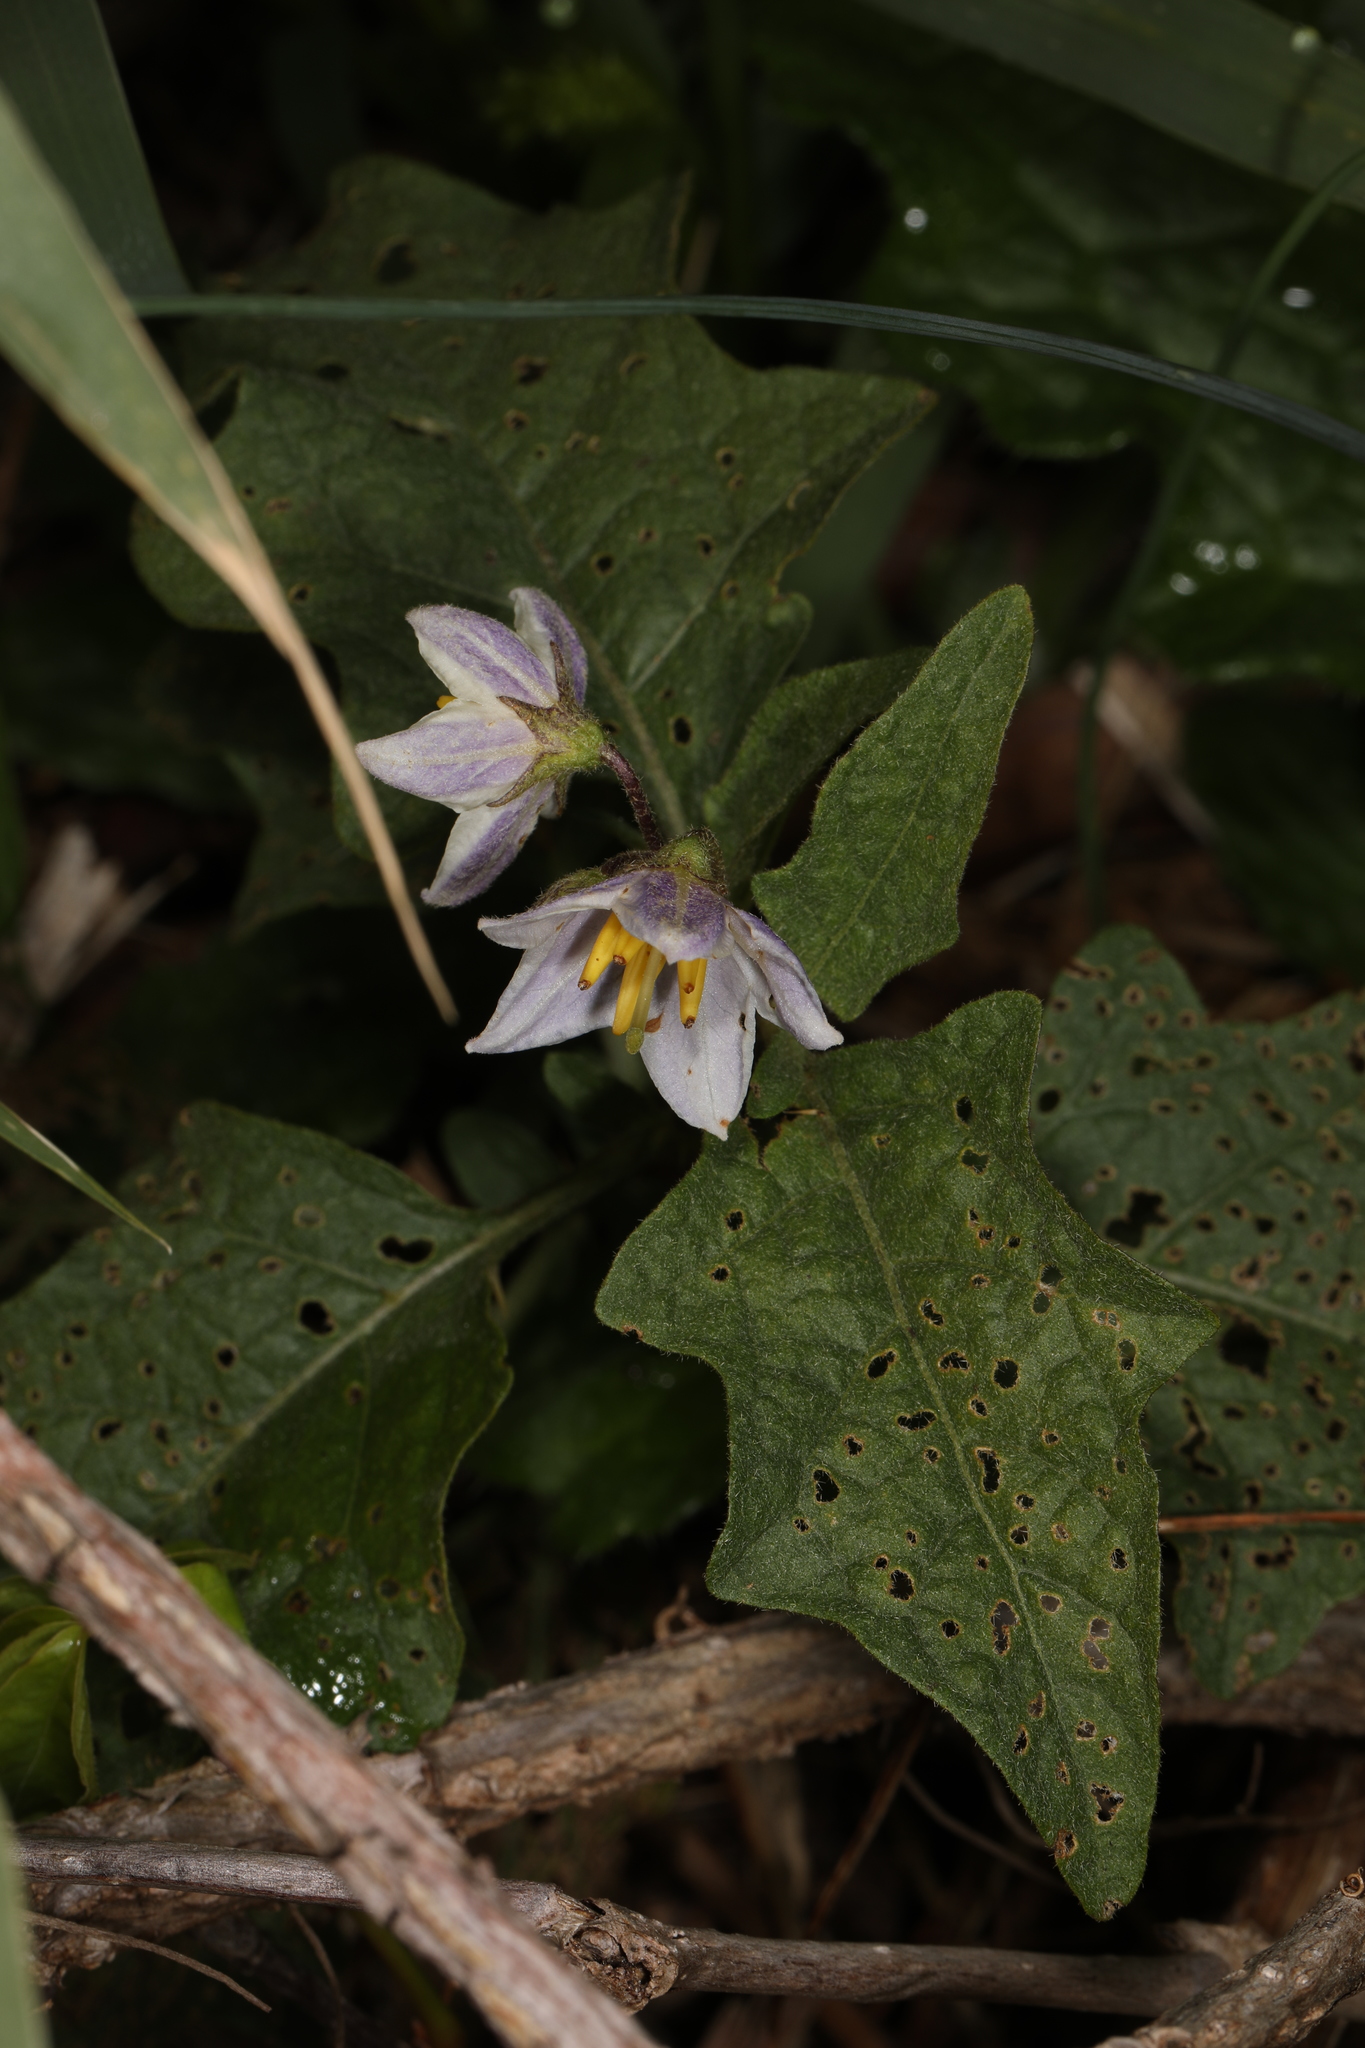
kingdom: Plantae
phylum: Tracheophyta
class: Magnoliopsida
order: Solanales
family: Solanaceae
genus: Solanum
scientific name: Solanum carolinense
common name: Horse-nettle
